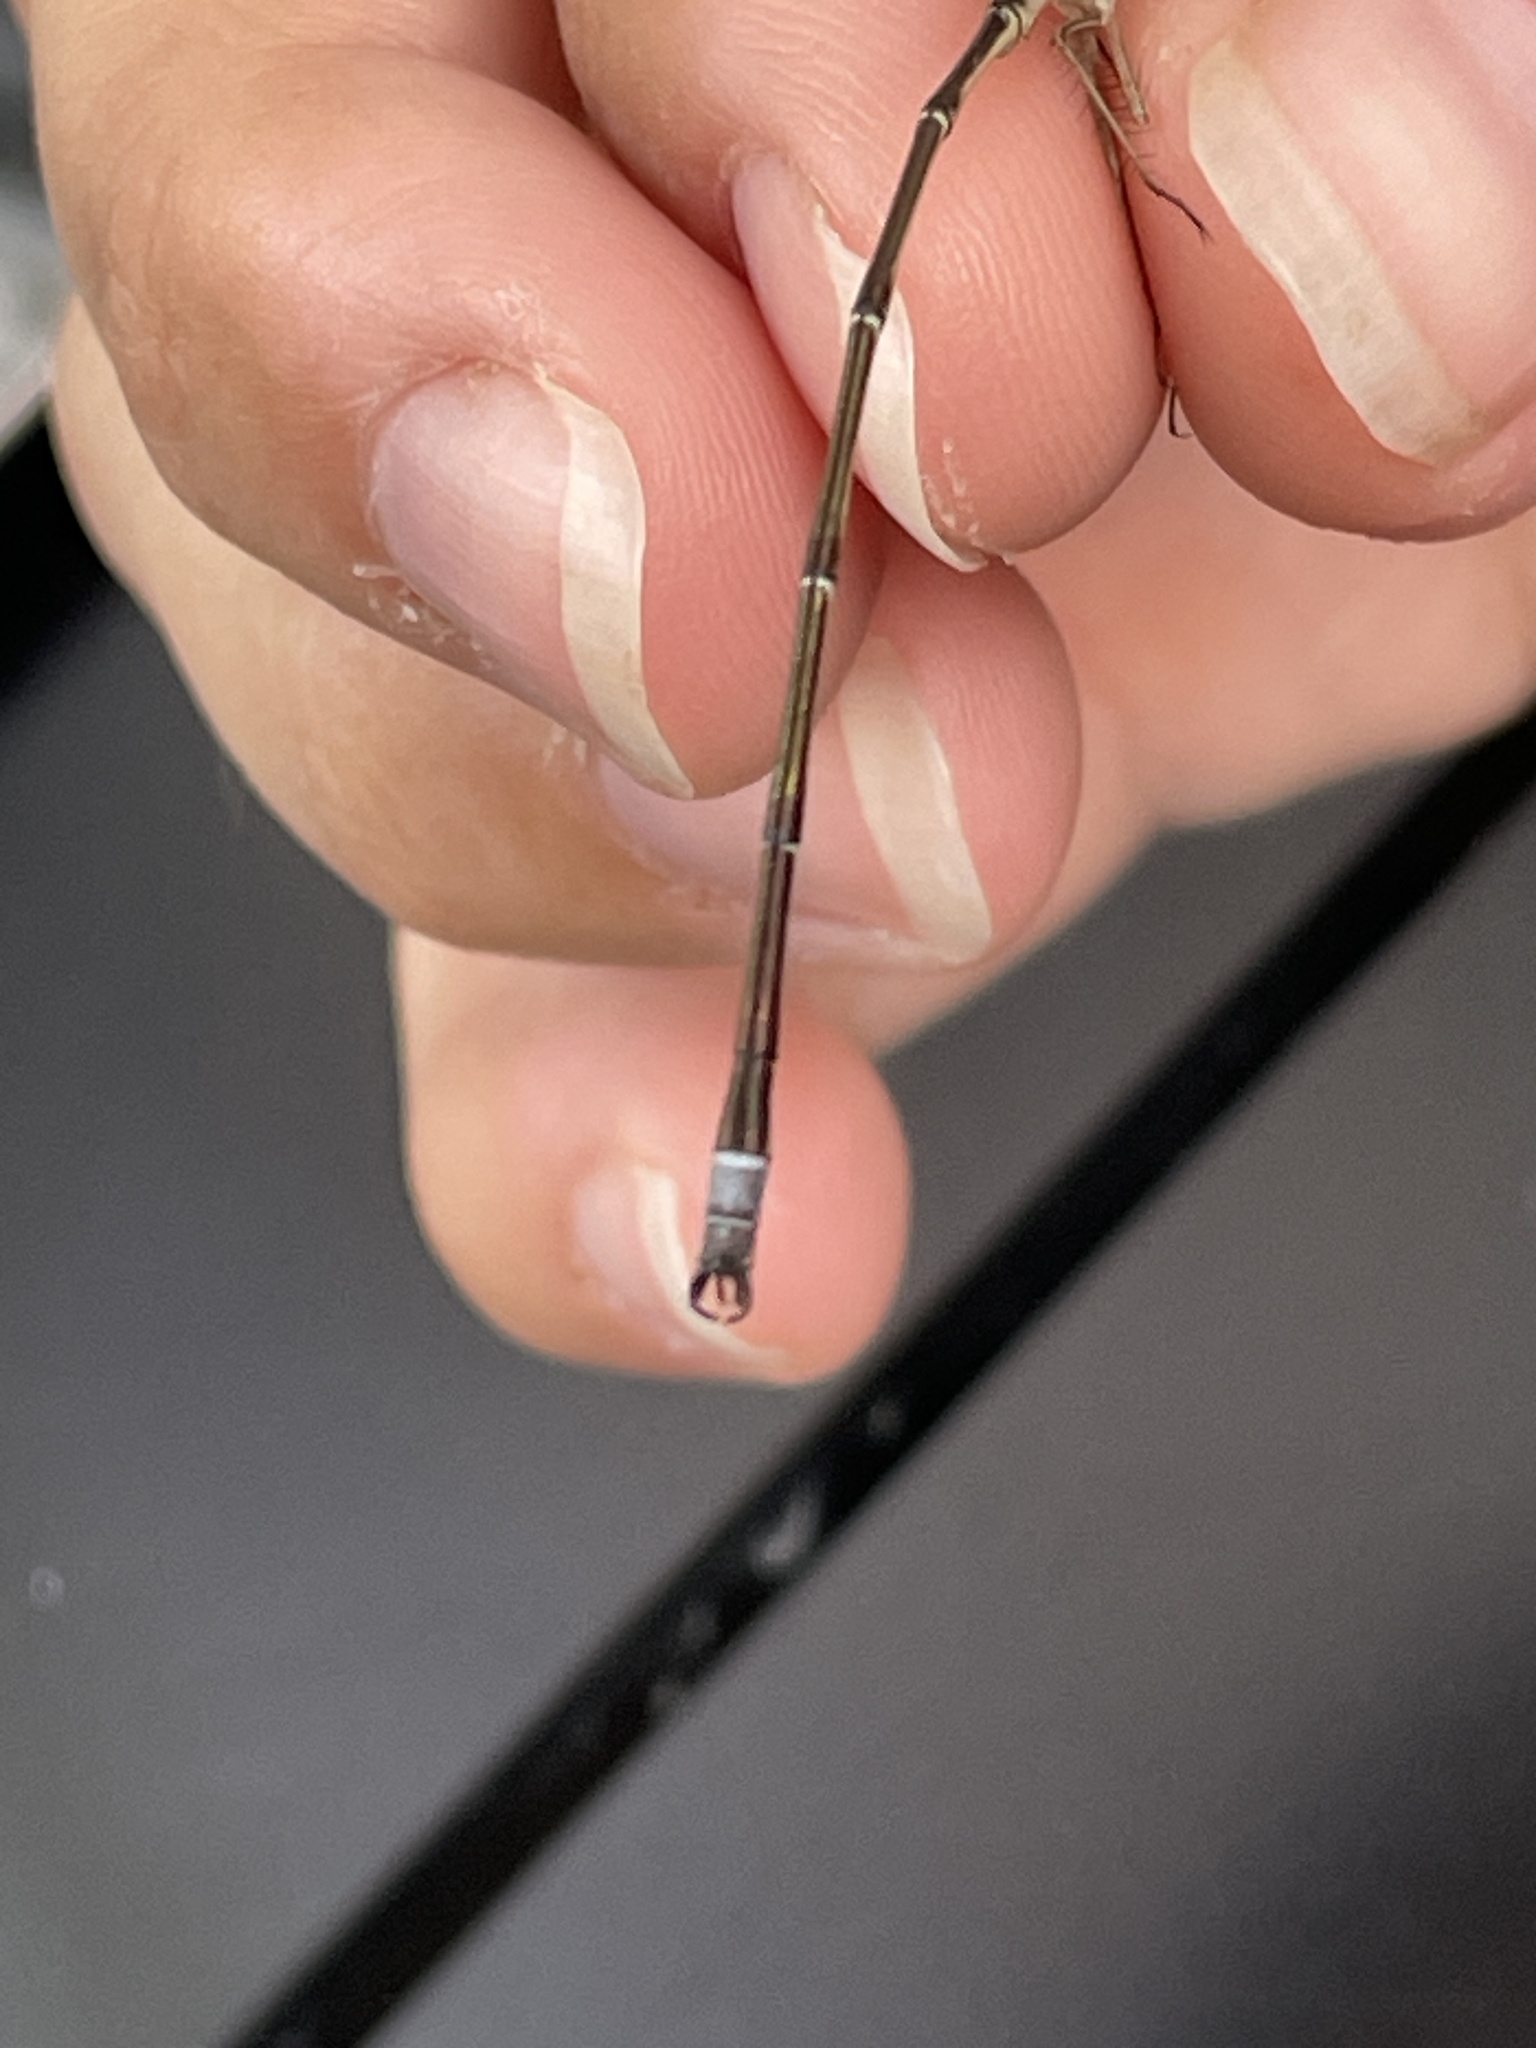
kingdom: Animalia
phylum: Arthropoda
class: Insecta
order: Odonata
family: Lestidae
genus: Lestes
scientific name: Lestes rectangularis
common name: Slender spreadwing
